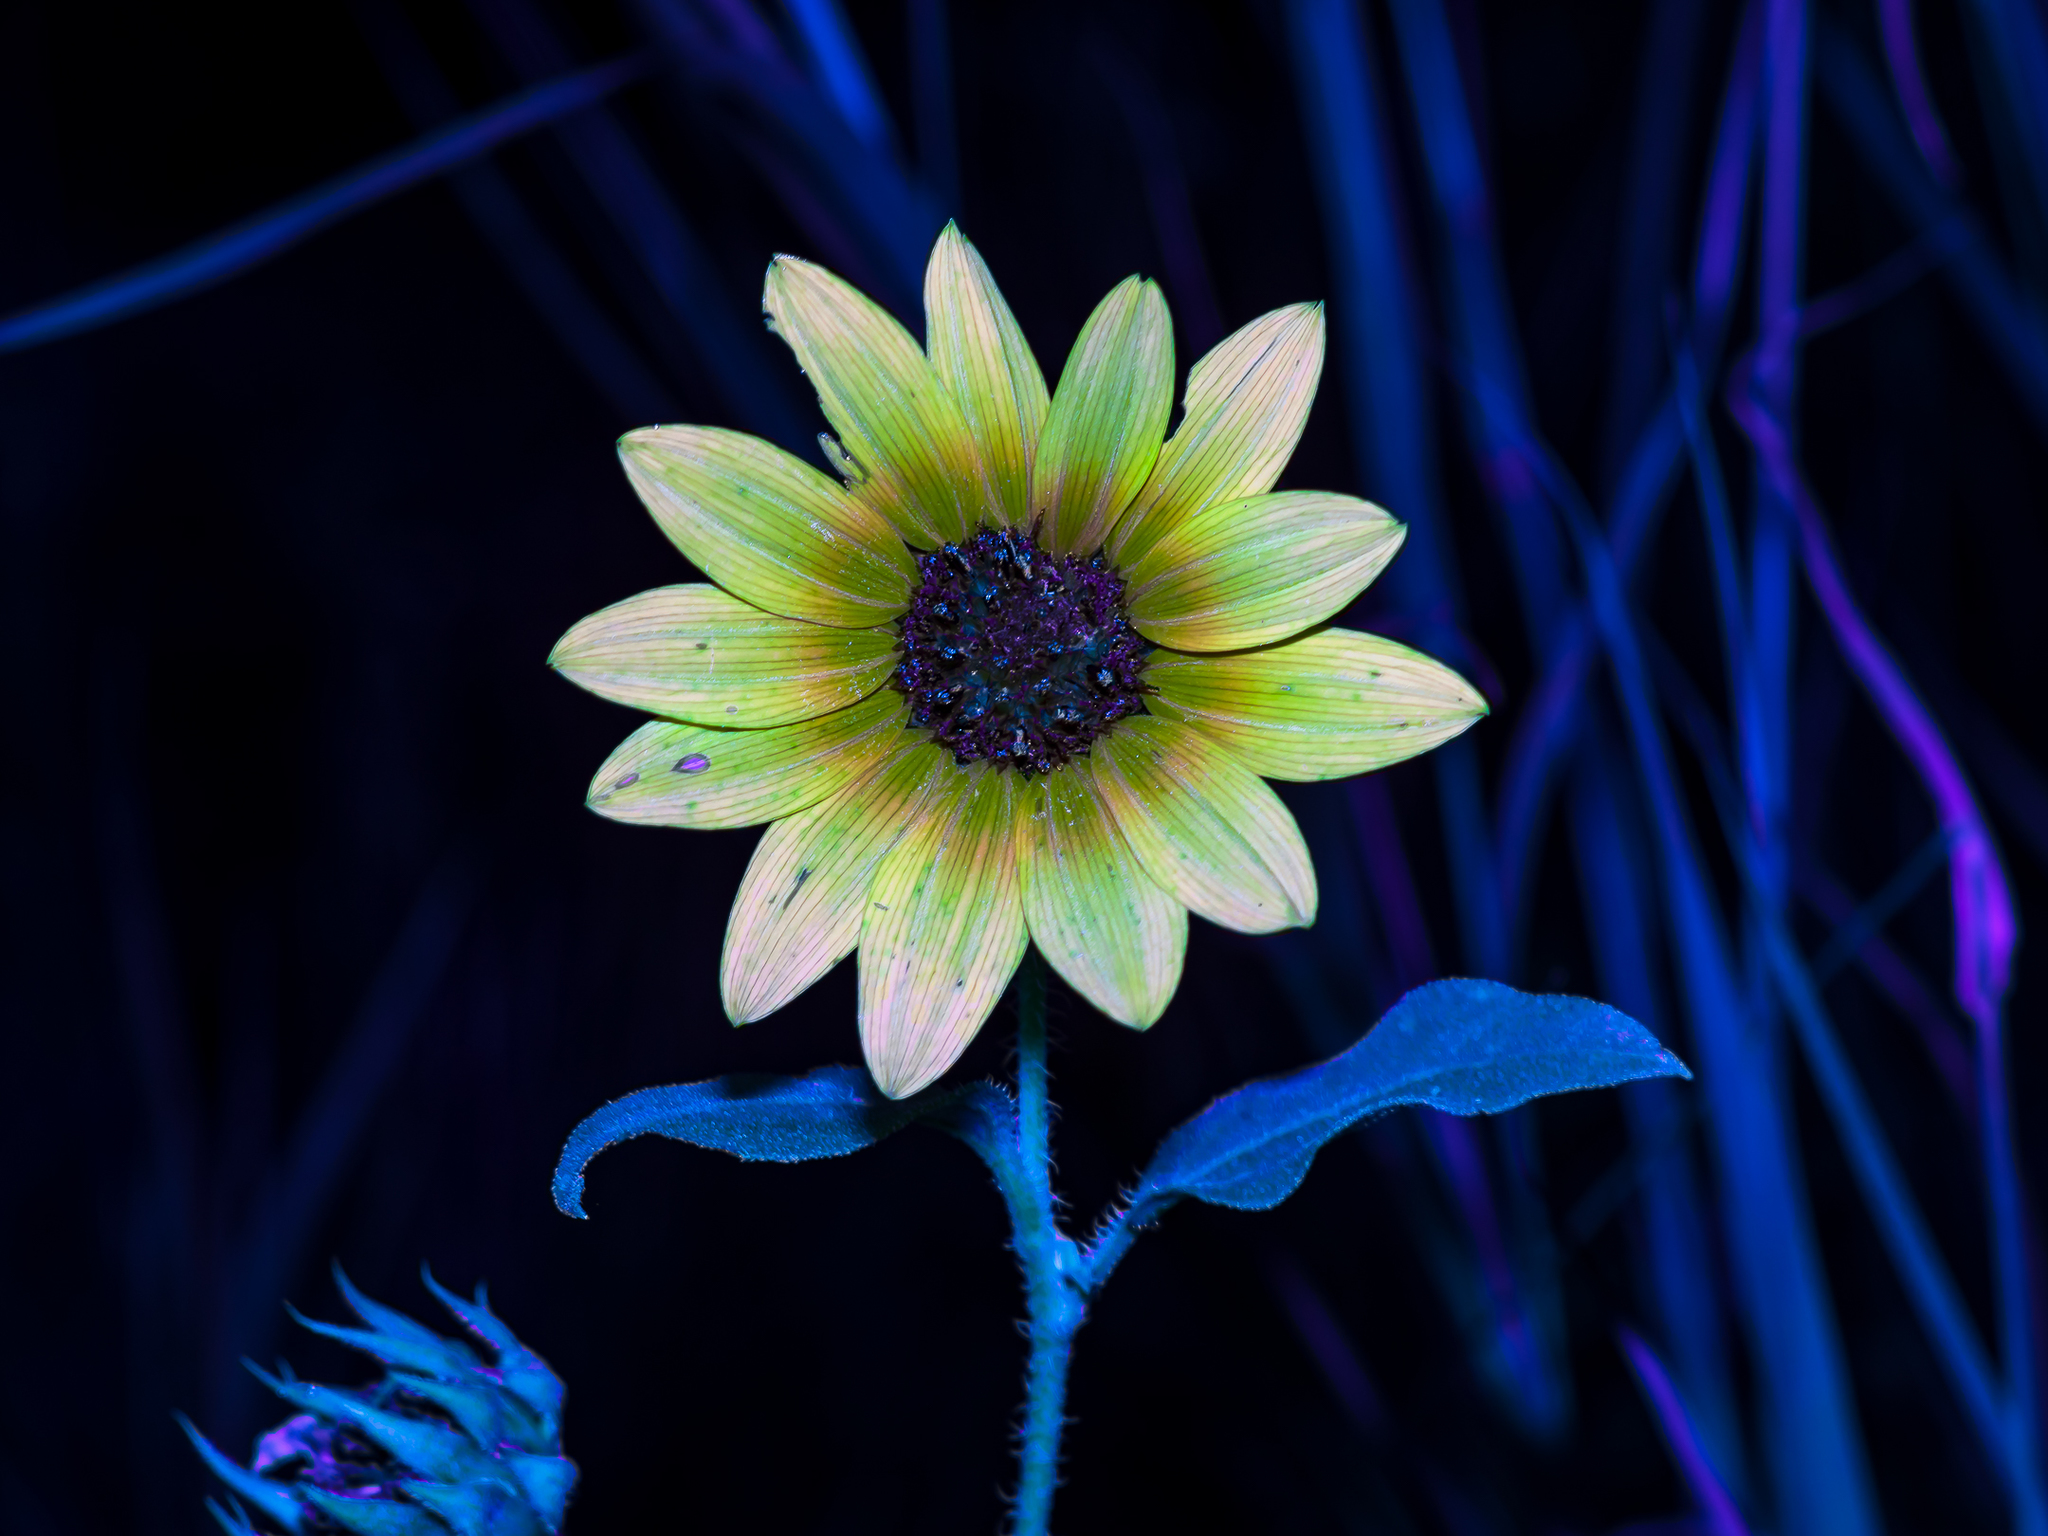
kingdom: Plantae
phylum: Tracheophyta
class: Magnoliopsida
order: Asterales
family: Asteraceae
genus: Helianthus
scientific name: Helianthus annuus
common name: Sunflower
